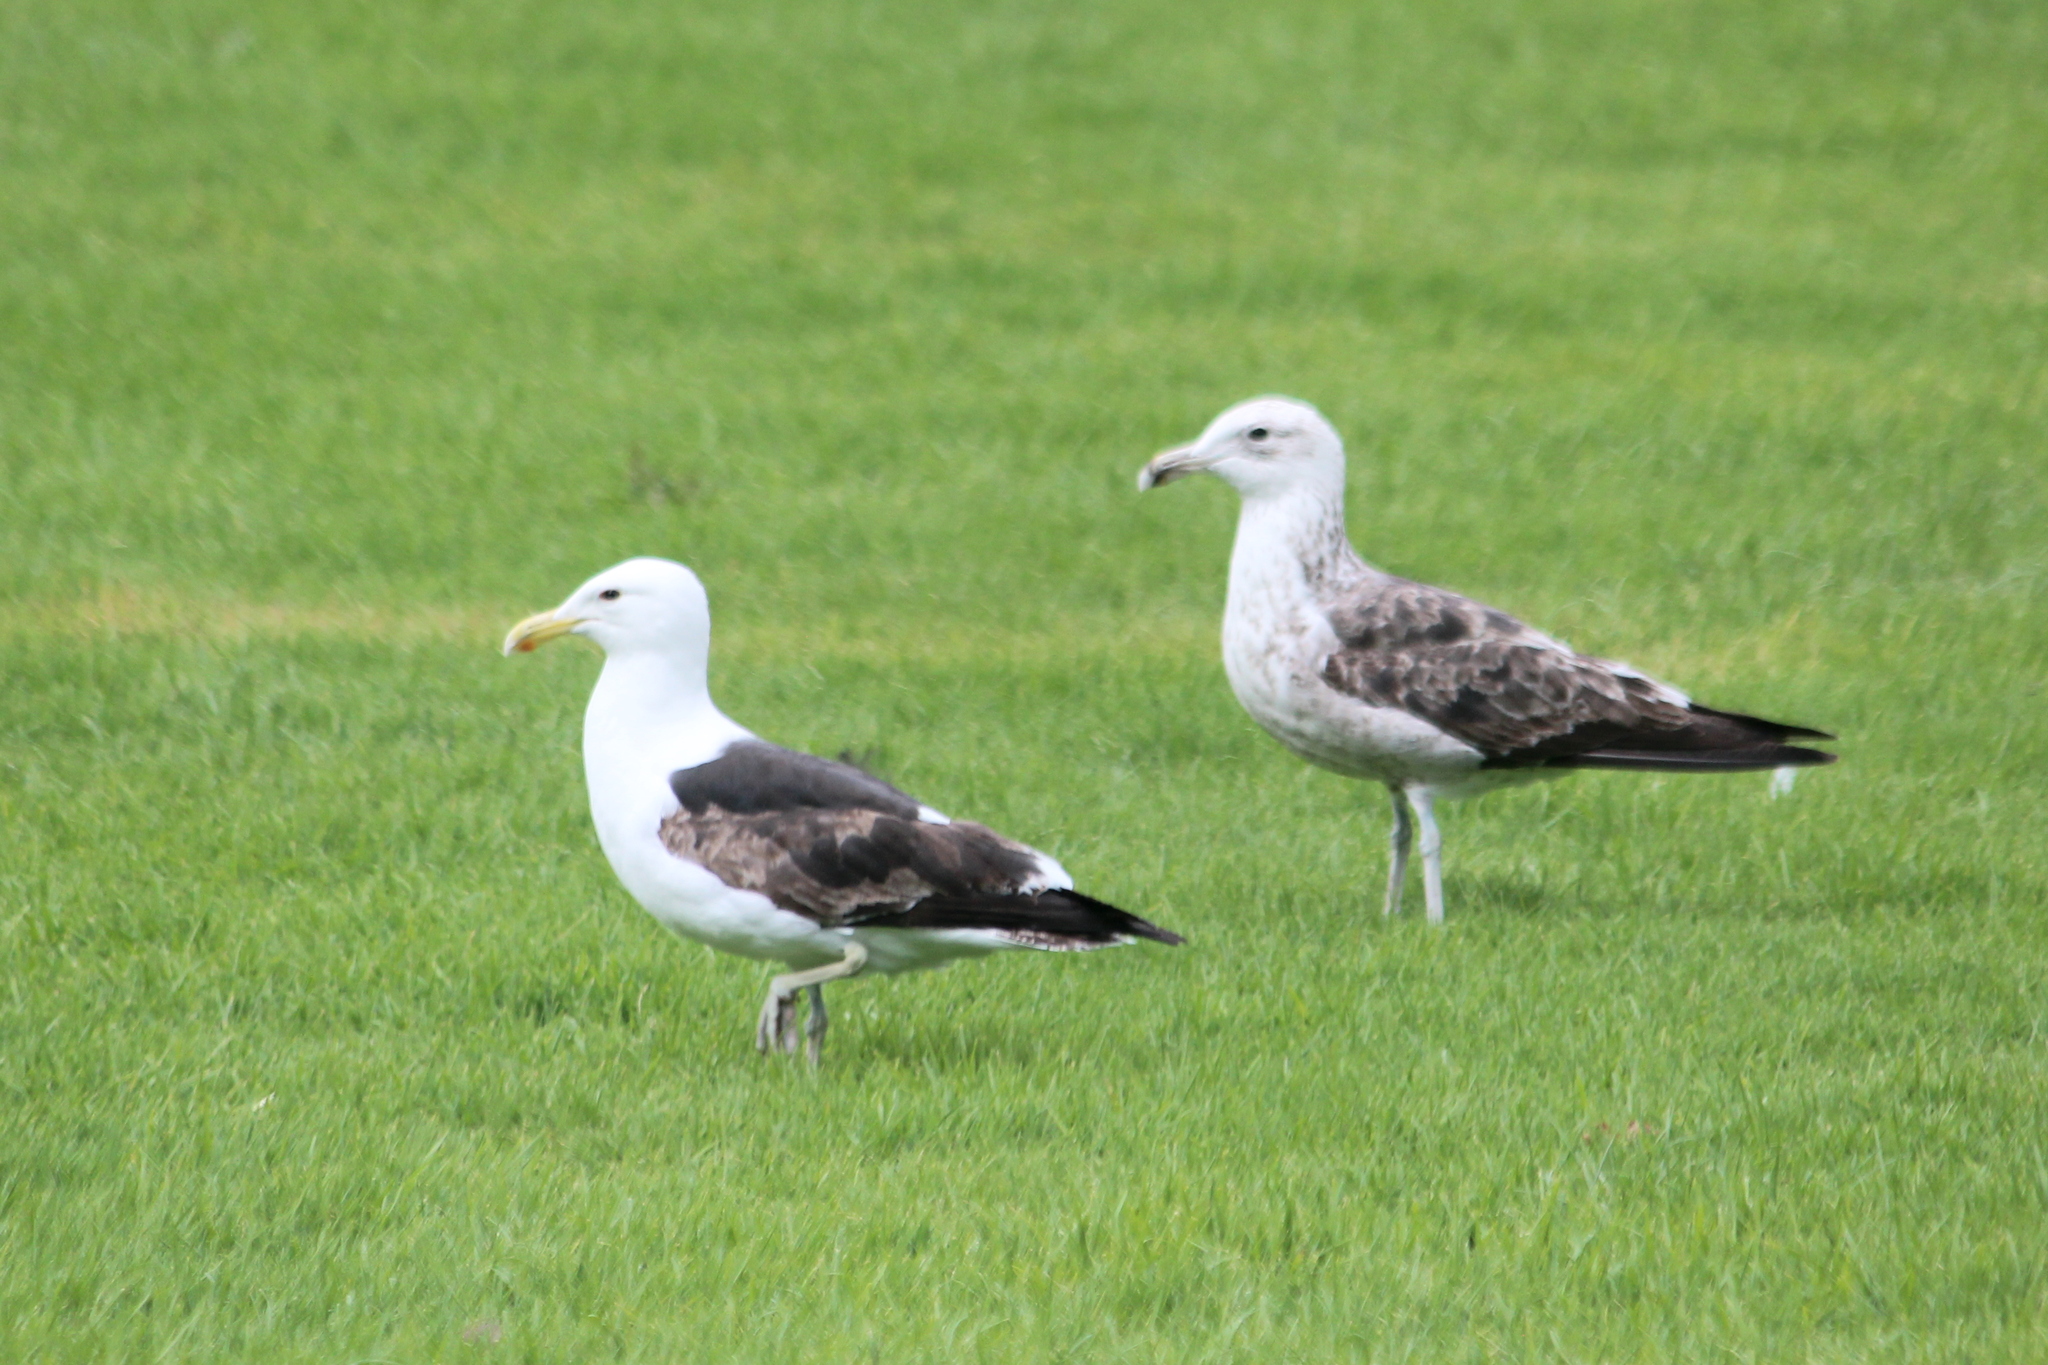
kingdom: Animalia
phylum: Chordata
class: Aves
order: Charadriiformes
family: Laridae
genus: Larus
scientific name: Larus dominicanus
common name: Kelp gull
